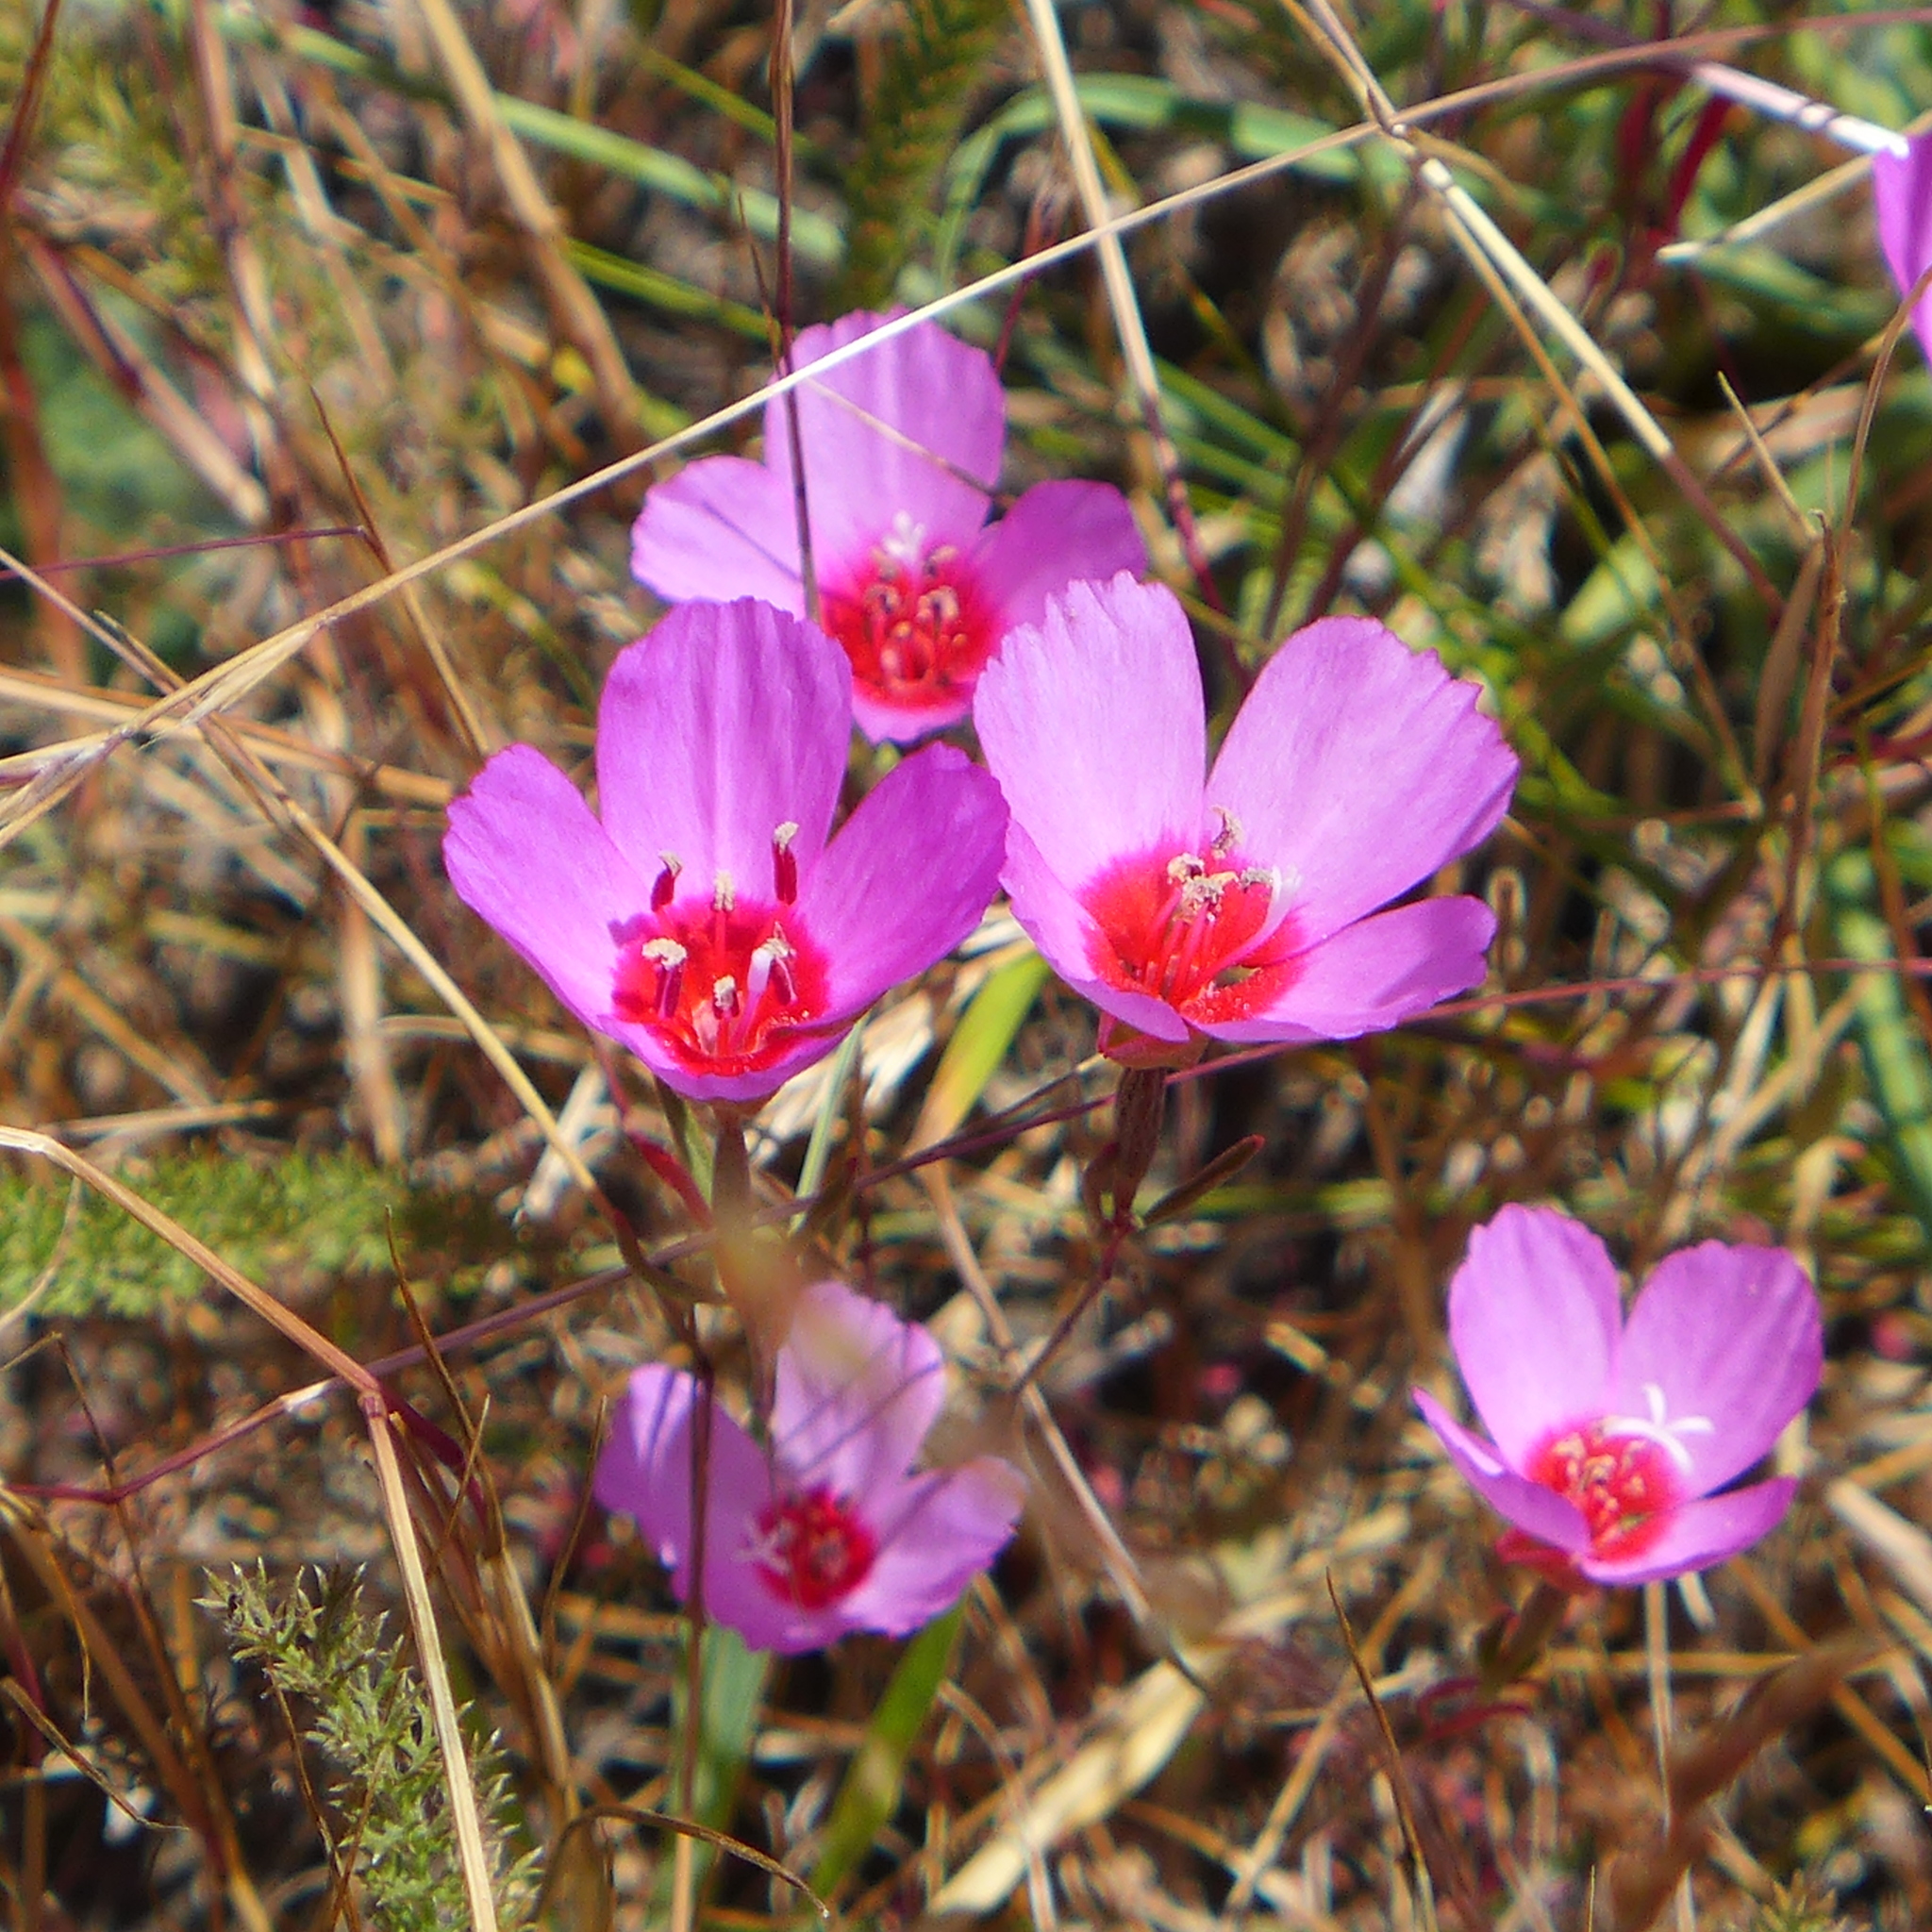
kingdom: Plantae
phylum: Tracheophyta
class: Magnoliopsida
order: Myrtales
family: Onagraceae
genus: Clarkia
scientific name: Clarkia rubicunda
